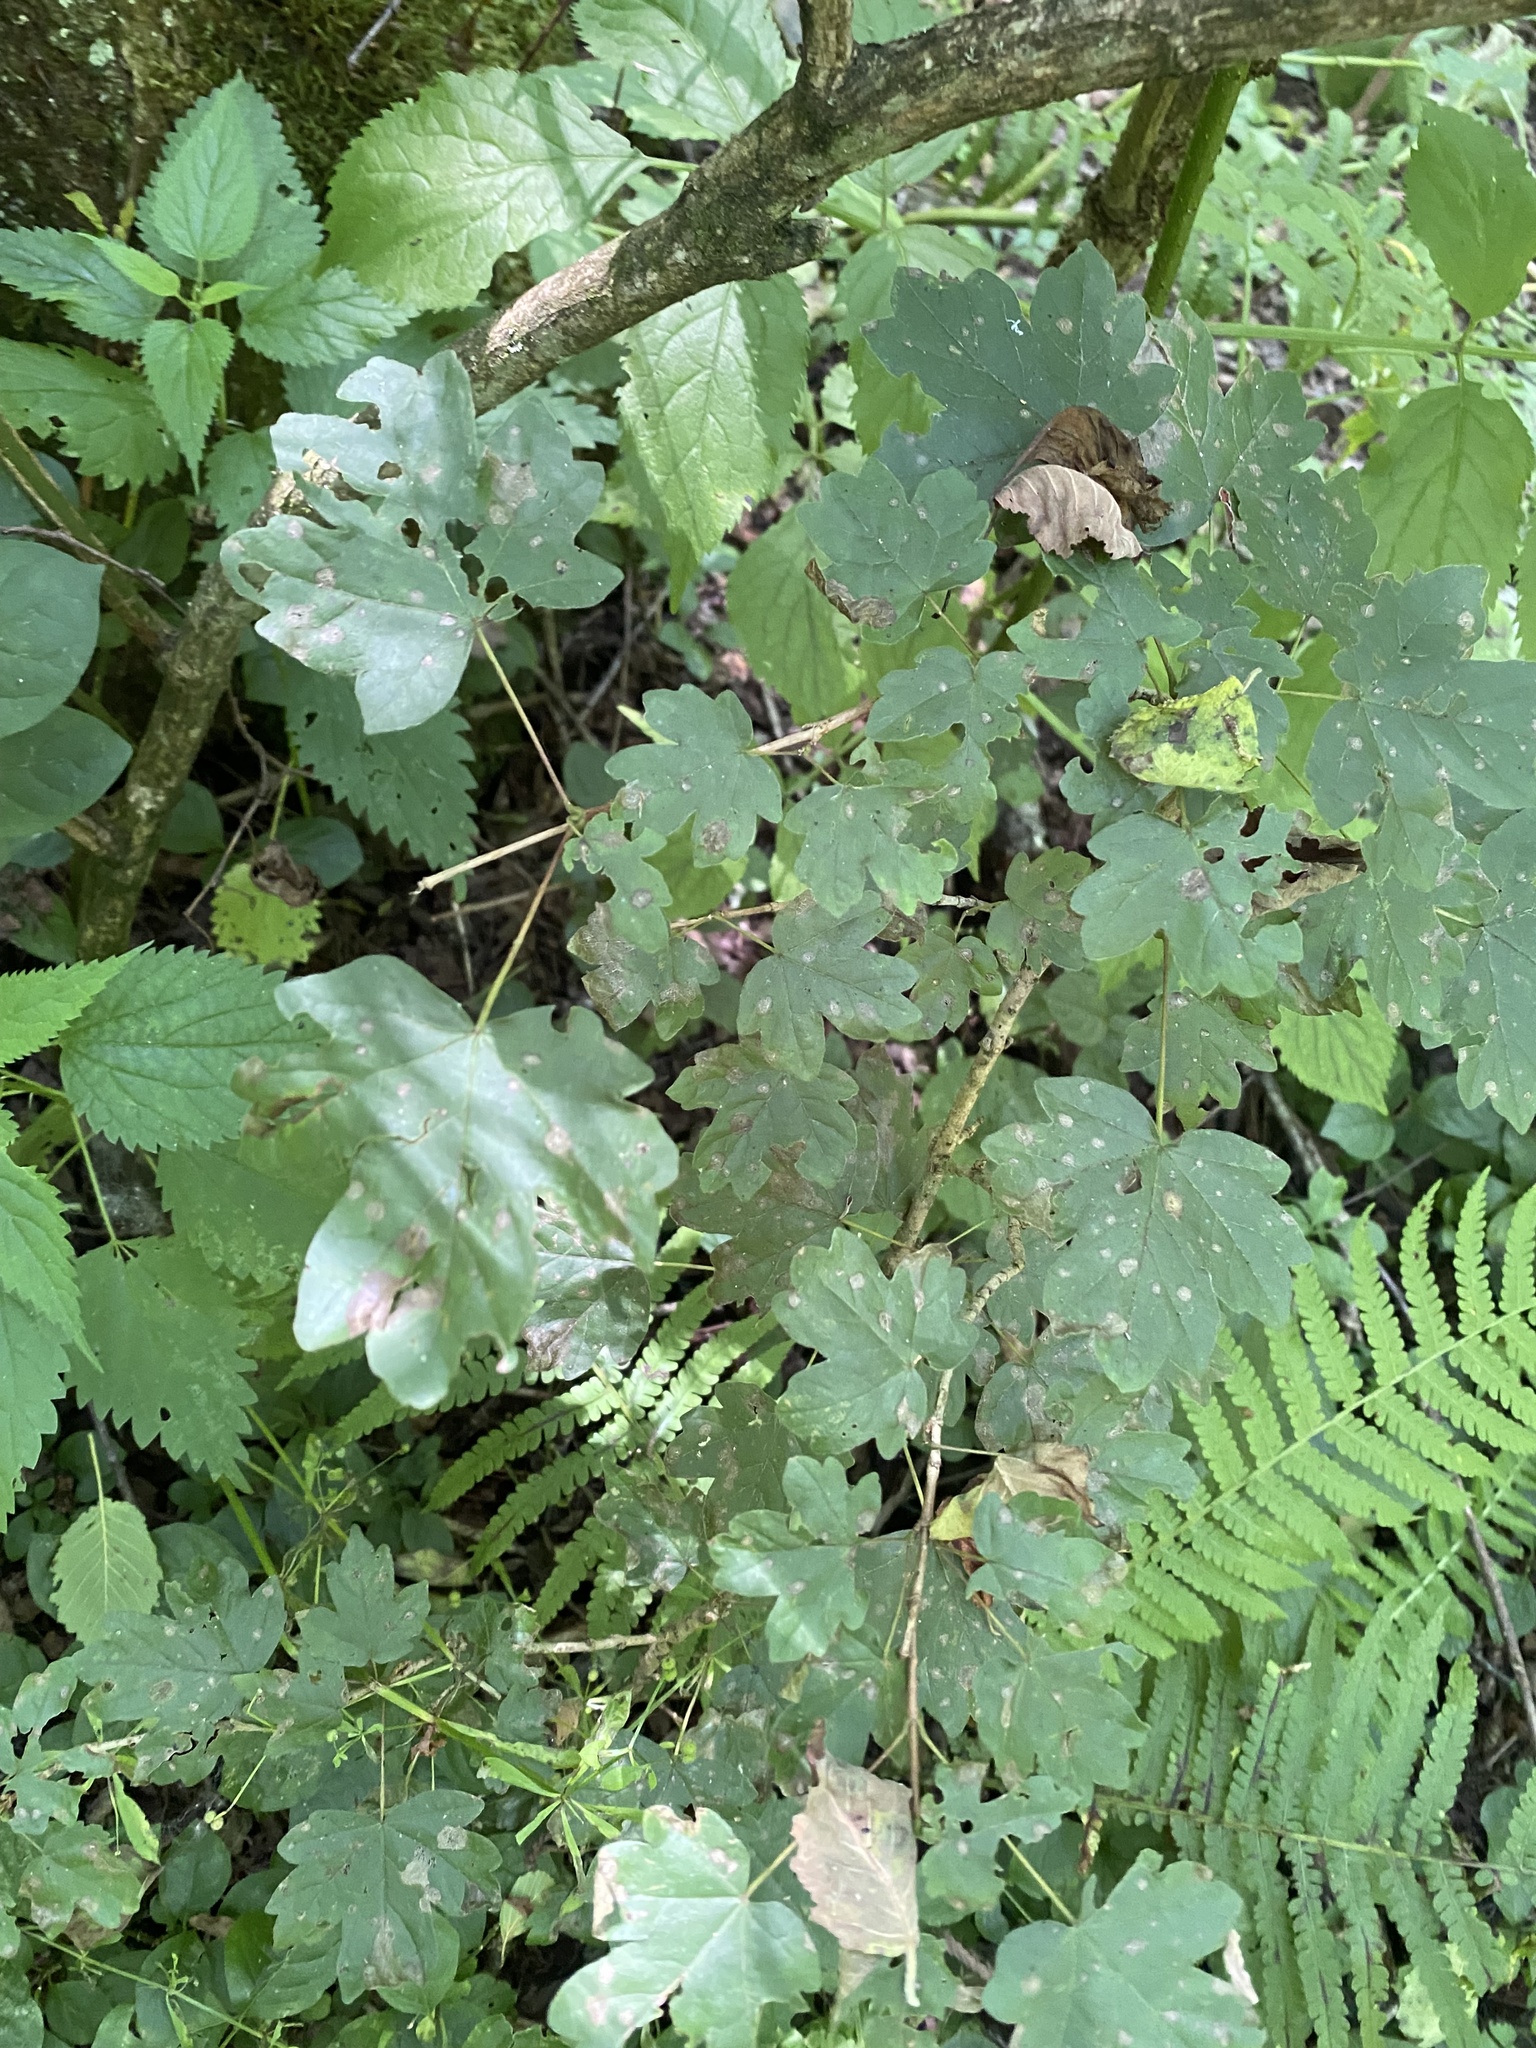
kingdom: Plantae
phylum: Tracheophyta
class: Magnoliopsida
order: Sapindales
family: Sapindaceae
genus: Acer
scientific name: Acer campestre
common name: Field maple
